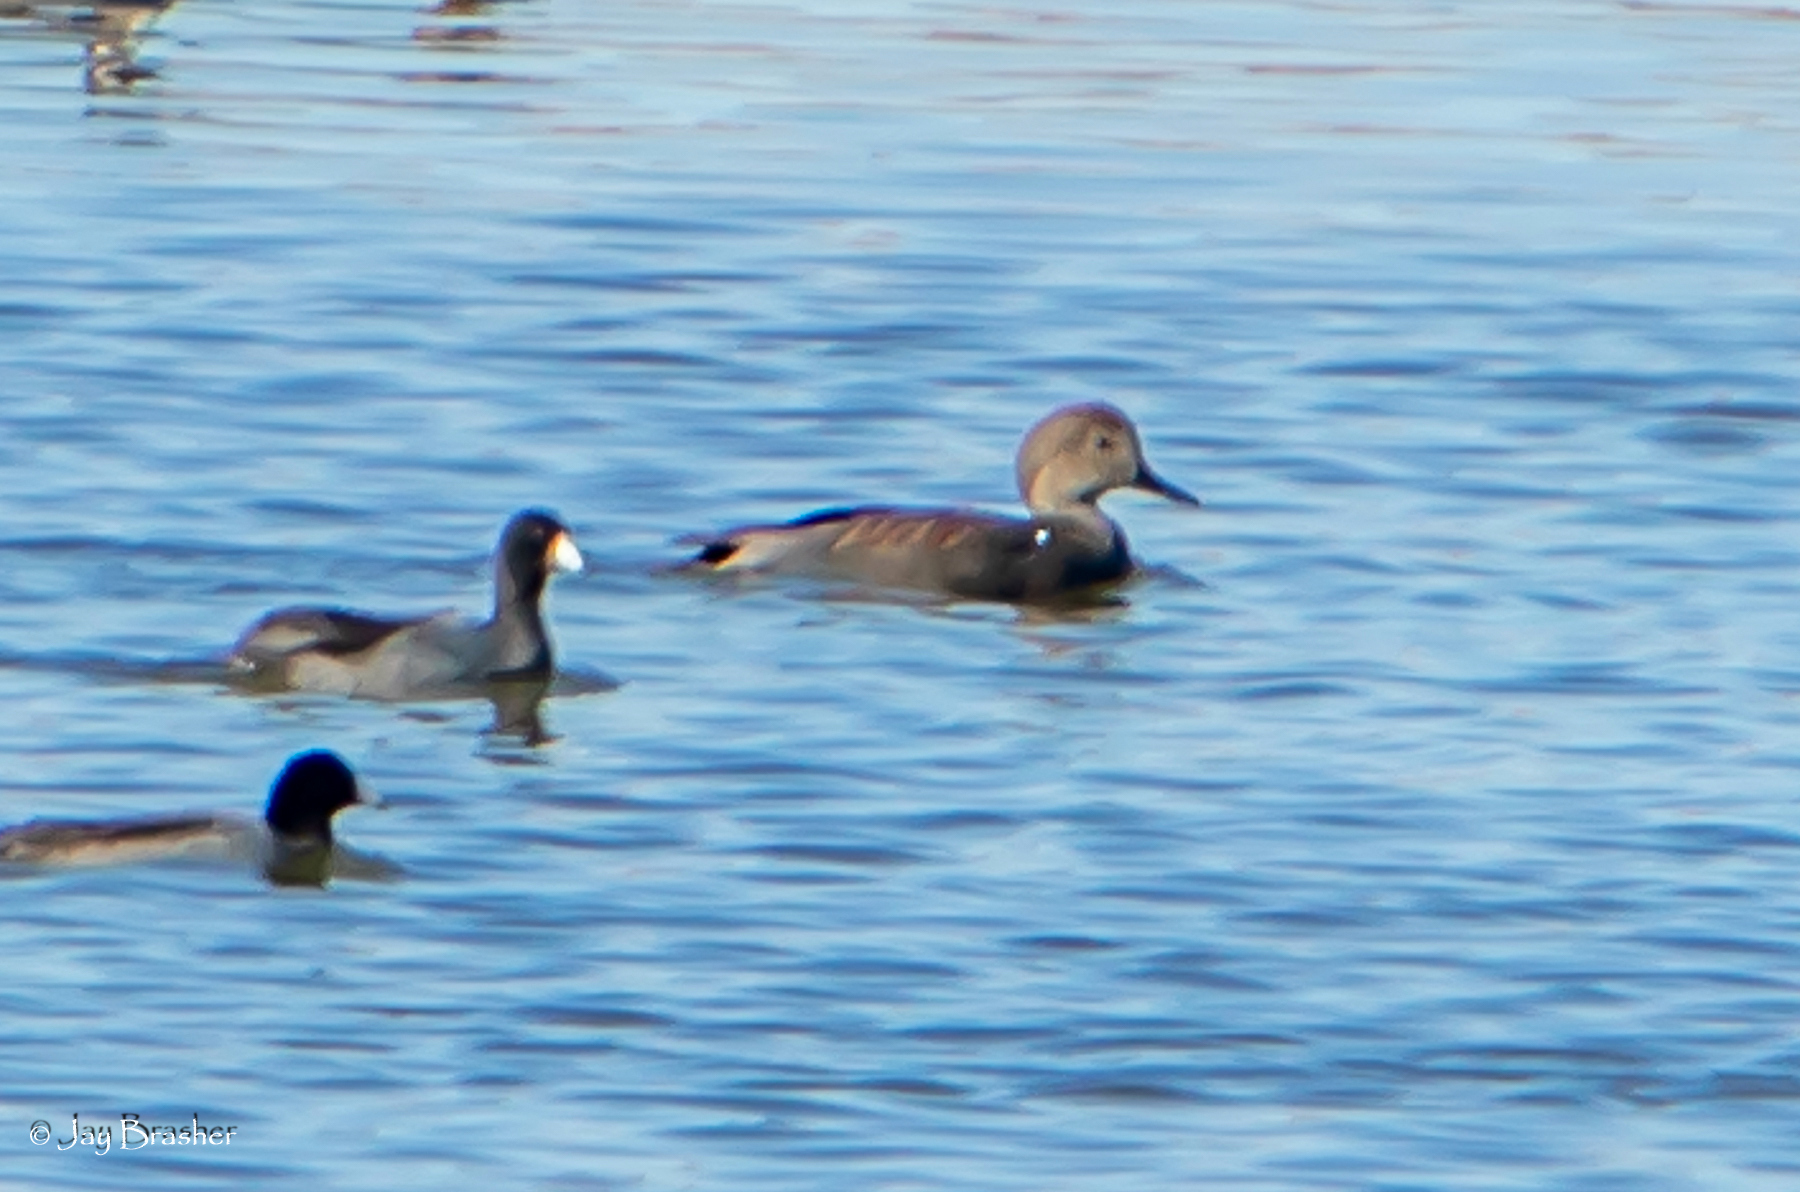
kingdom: Animalia
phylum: Chordata
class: Aves
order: Anseriformes
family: Anatidae
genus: Mareca
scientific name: Mareca strepera
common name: Gadwall
